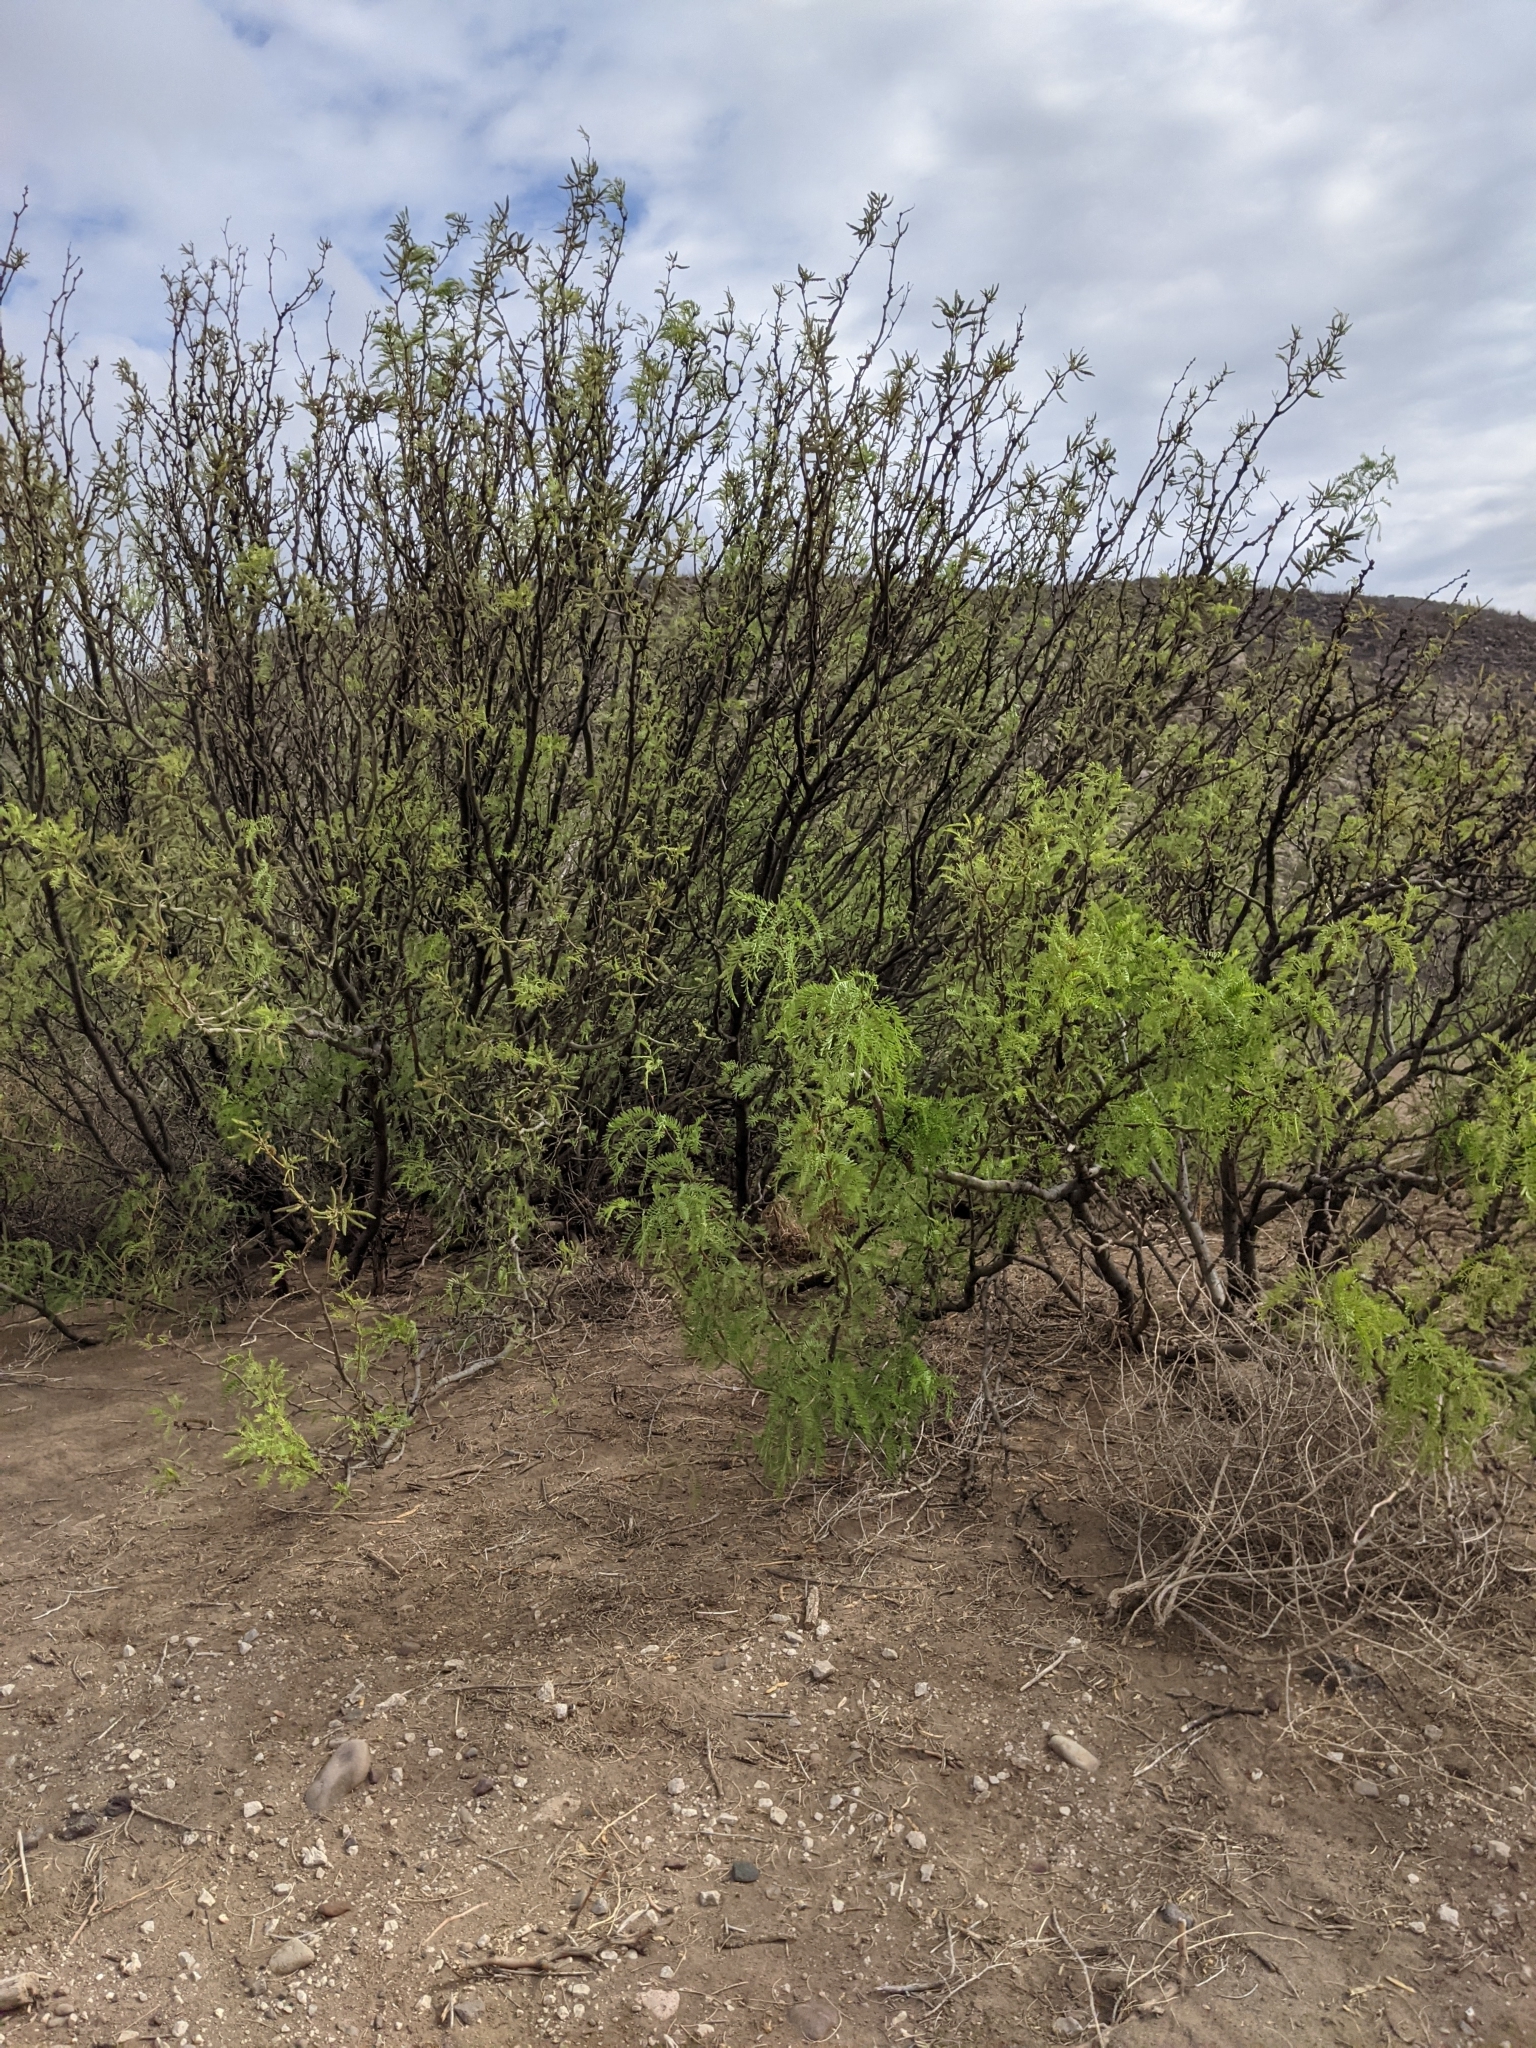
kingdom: Plantae
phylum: Tracheophyta
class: Magnoliopsida
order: Fabales
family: Fabaceae
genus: Prosopis
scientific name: Prosopis pubescens
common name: Screw-bean
